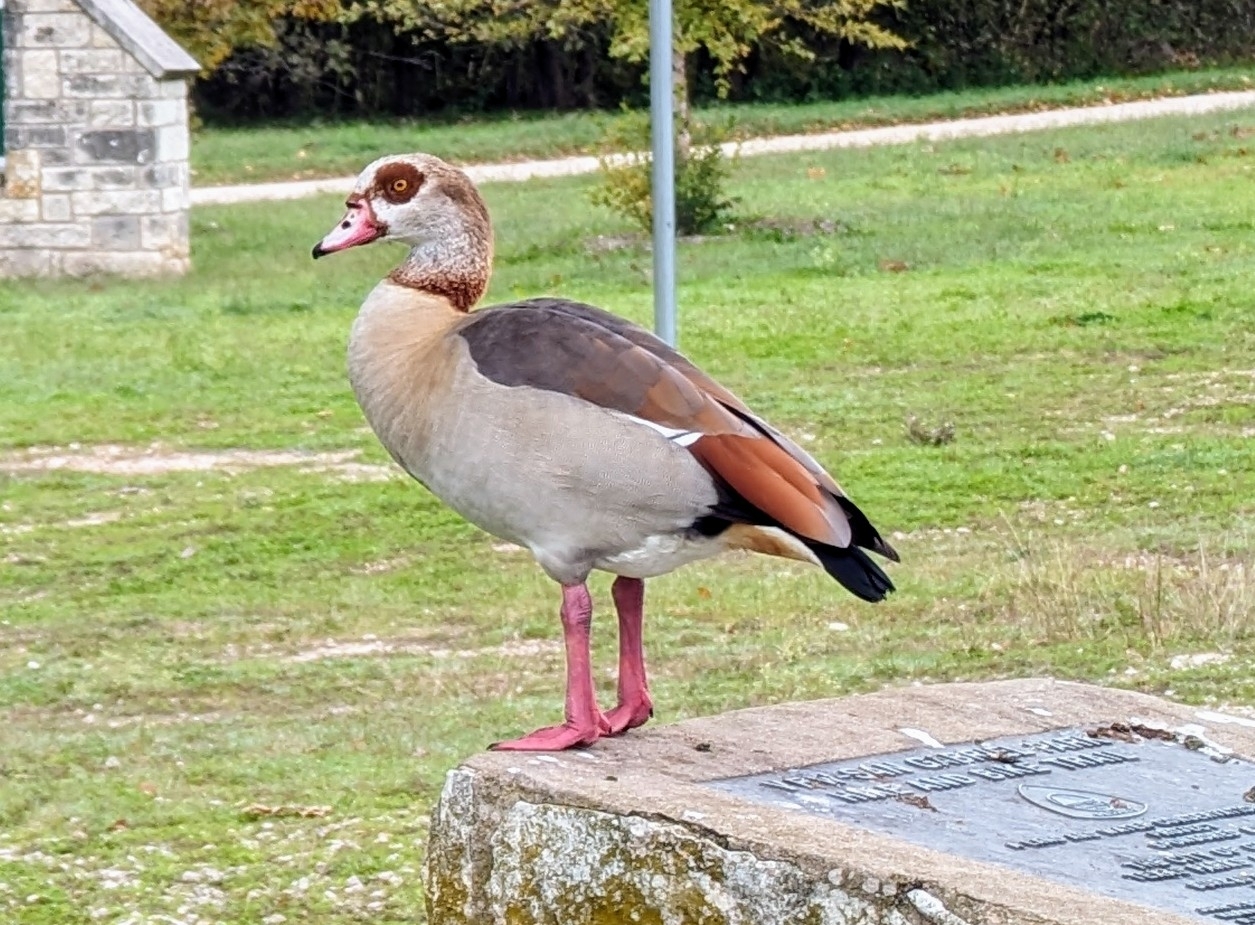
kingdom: Animalia
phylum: Chordata
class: Aves
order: Anseriformes
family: Anatidae
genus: Alopochen
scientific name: Alopochen aegyptiaca
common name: Egyptian goose
